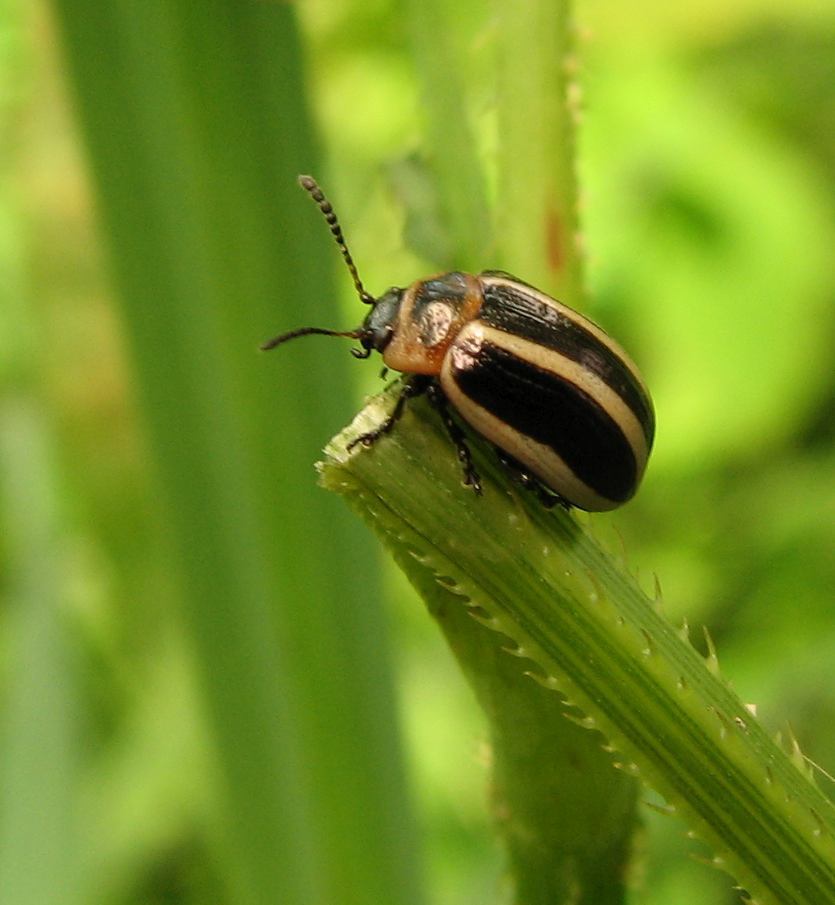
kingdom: Animalia
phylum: Arthropoda
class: Insecta
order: Coleoptera
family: Chrysomelidae
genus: Calligrapha
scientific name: Calligrapha californica
